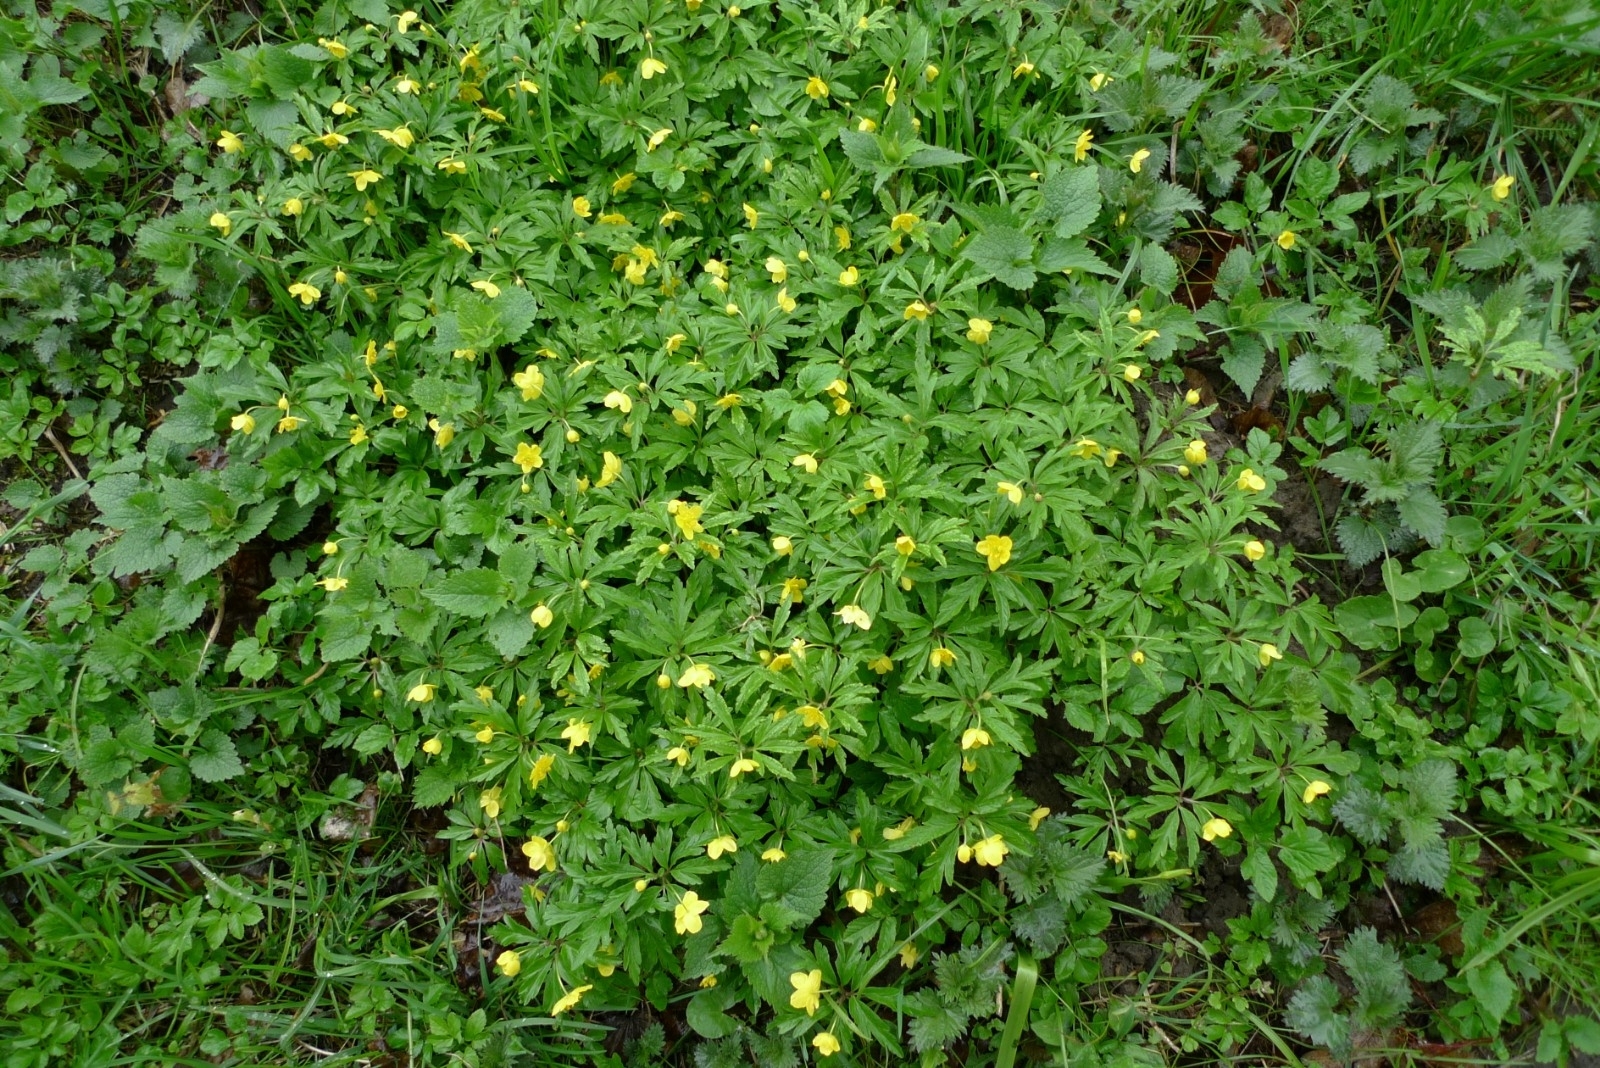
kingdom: Plantae
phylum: Tracheophyta
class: Magnoliopsida
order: Ranunculales
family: Ranunculaceae
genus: Anemone
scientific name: Anemone ranunculoides
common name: Yellow anemone
